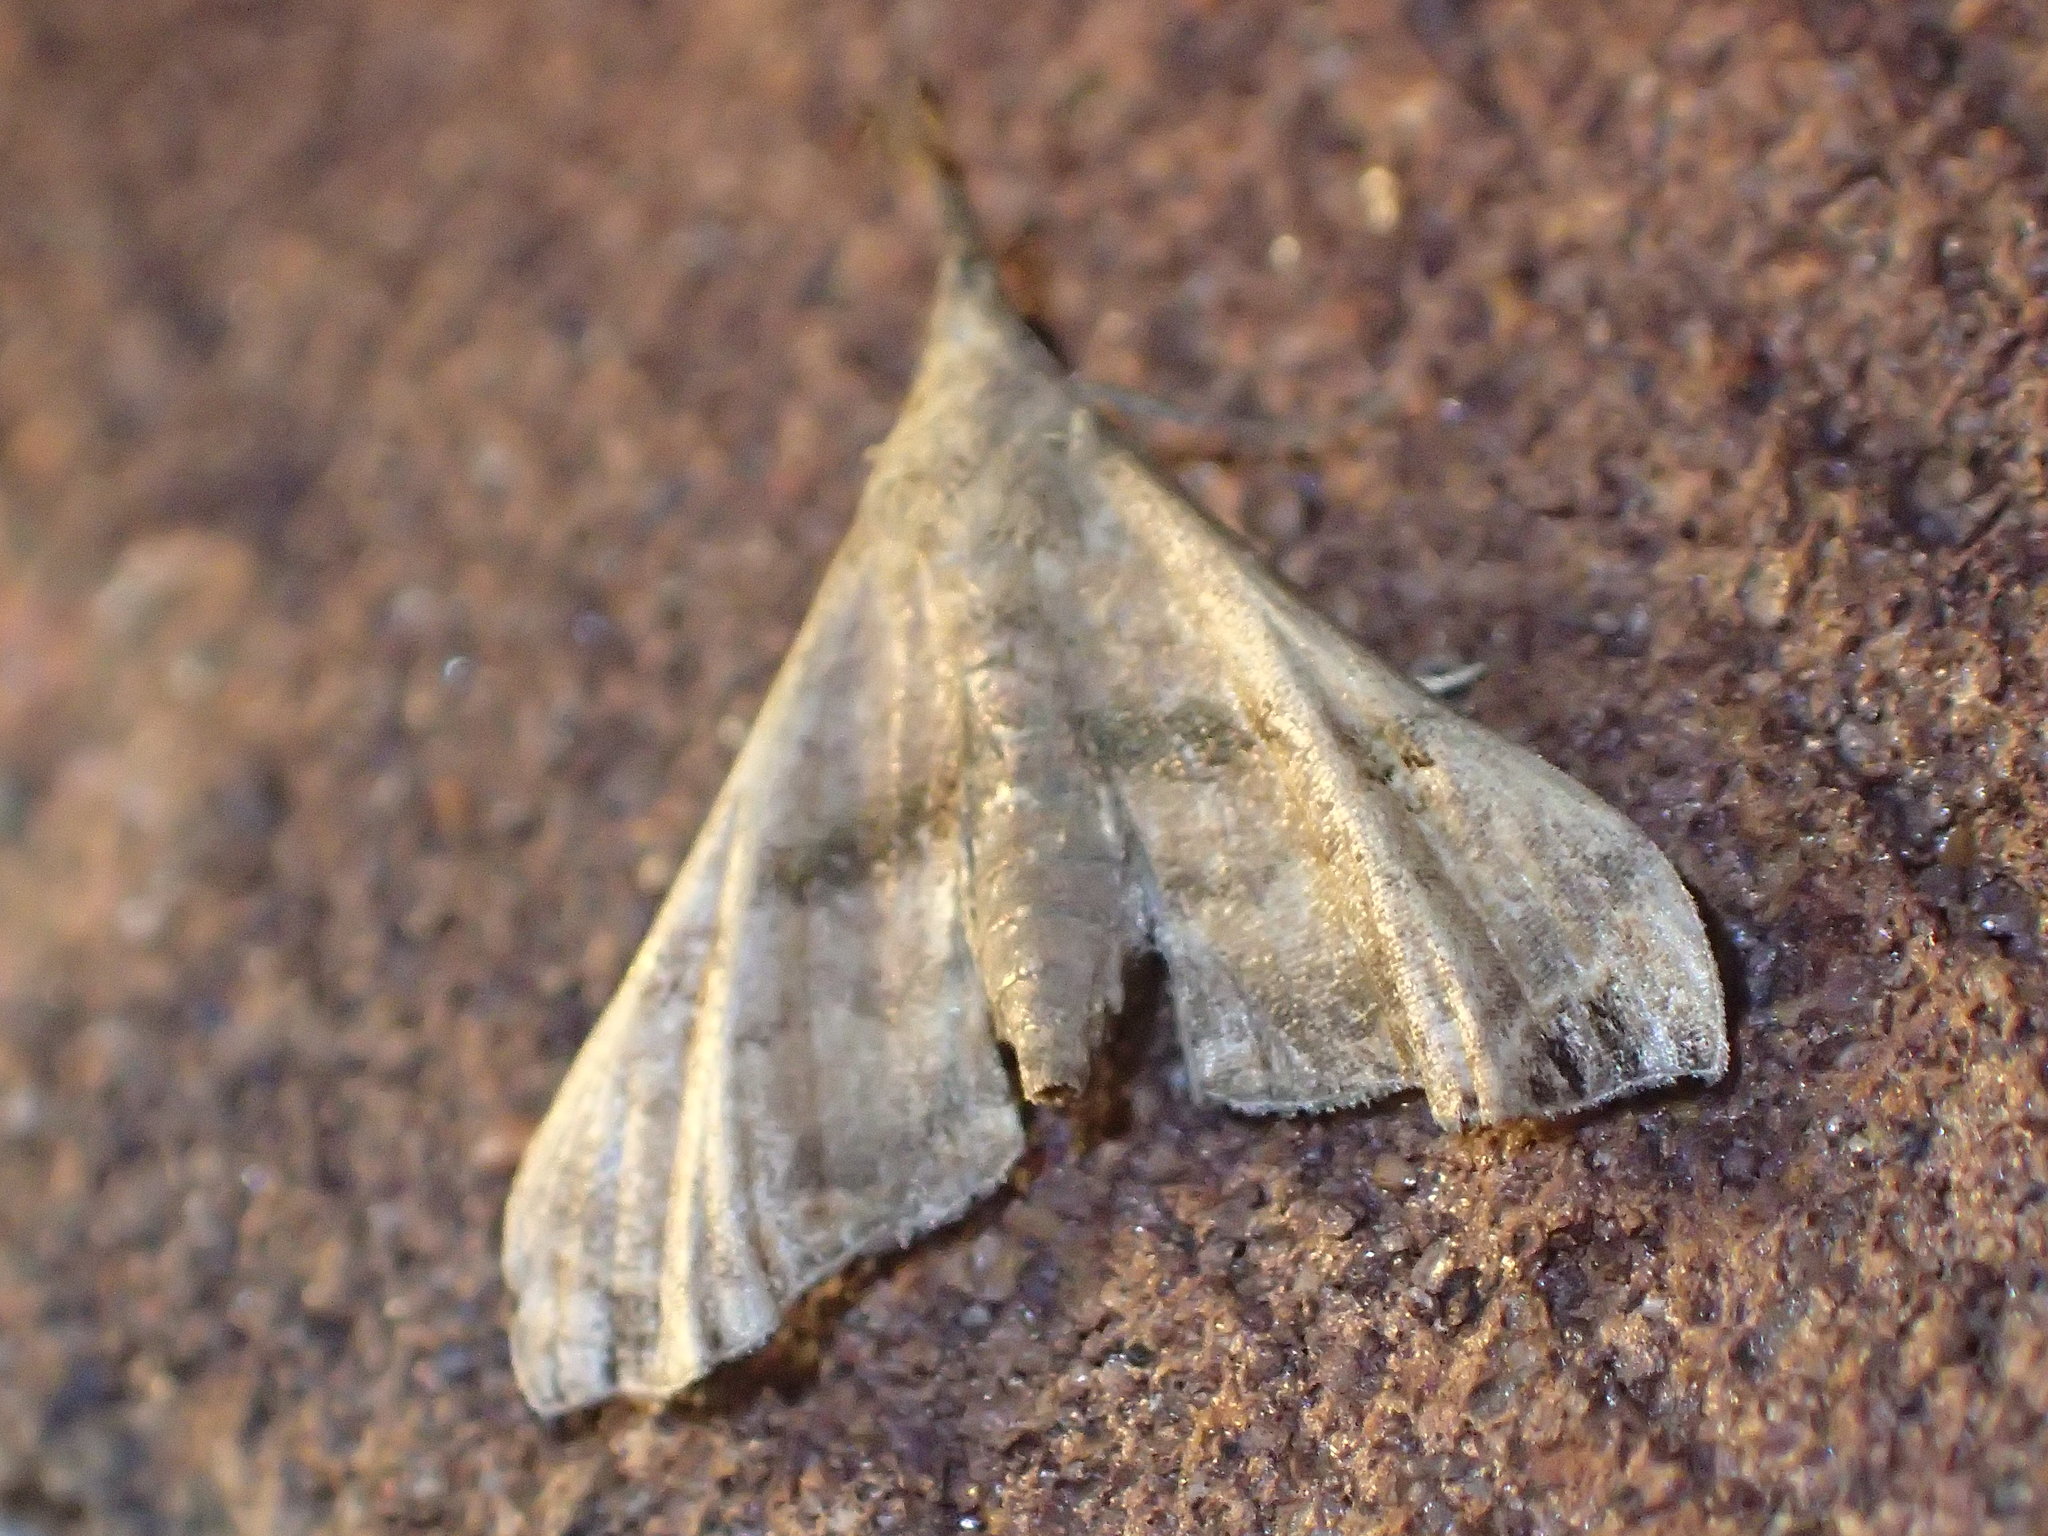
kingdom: Animalia
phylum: Arthropoda
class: Insecta
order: Lepidoptera
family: Erebidae
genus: Palthis
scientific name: Palthis asopialis
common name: Faint-spotted palthis moth
